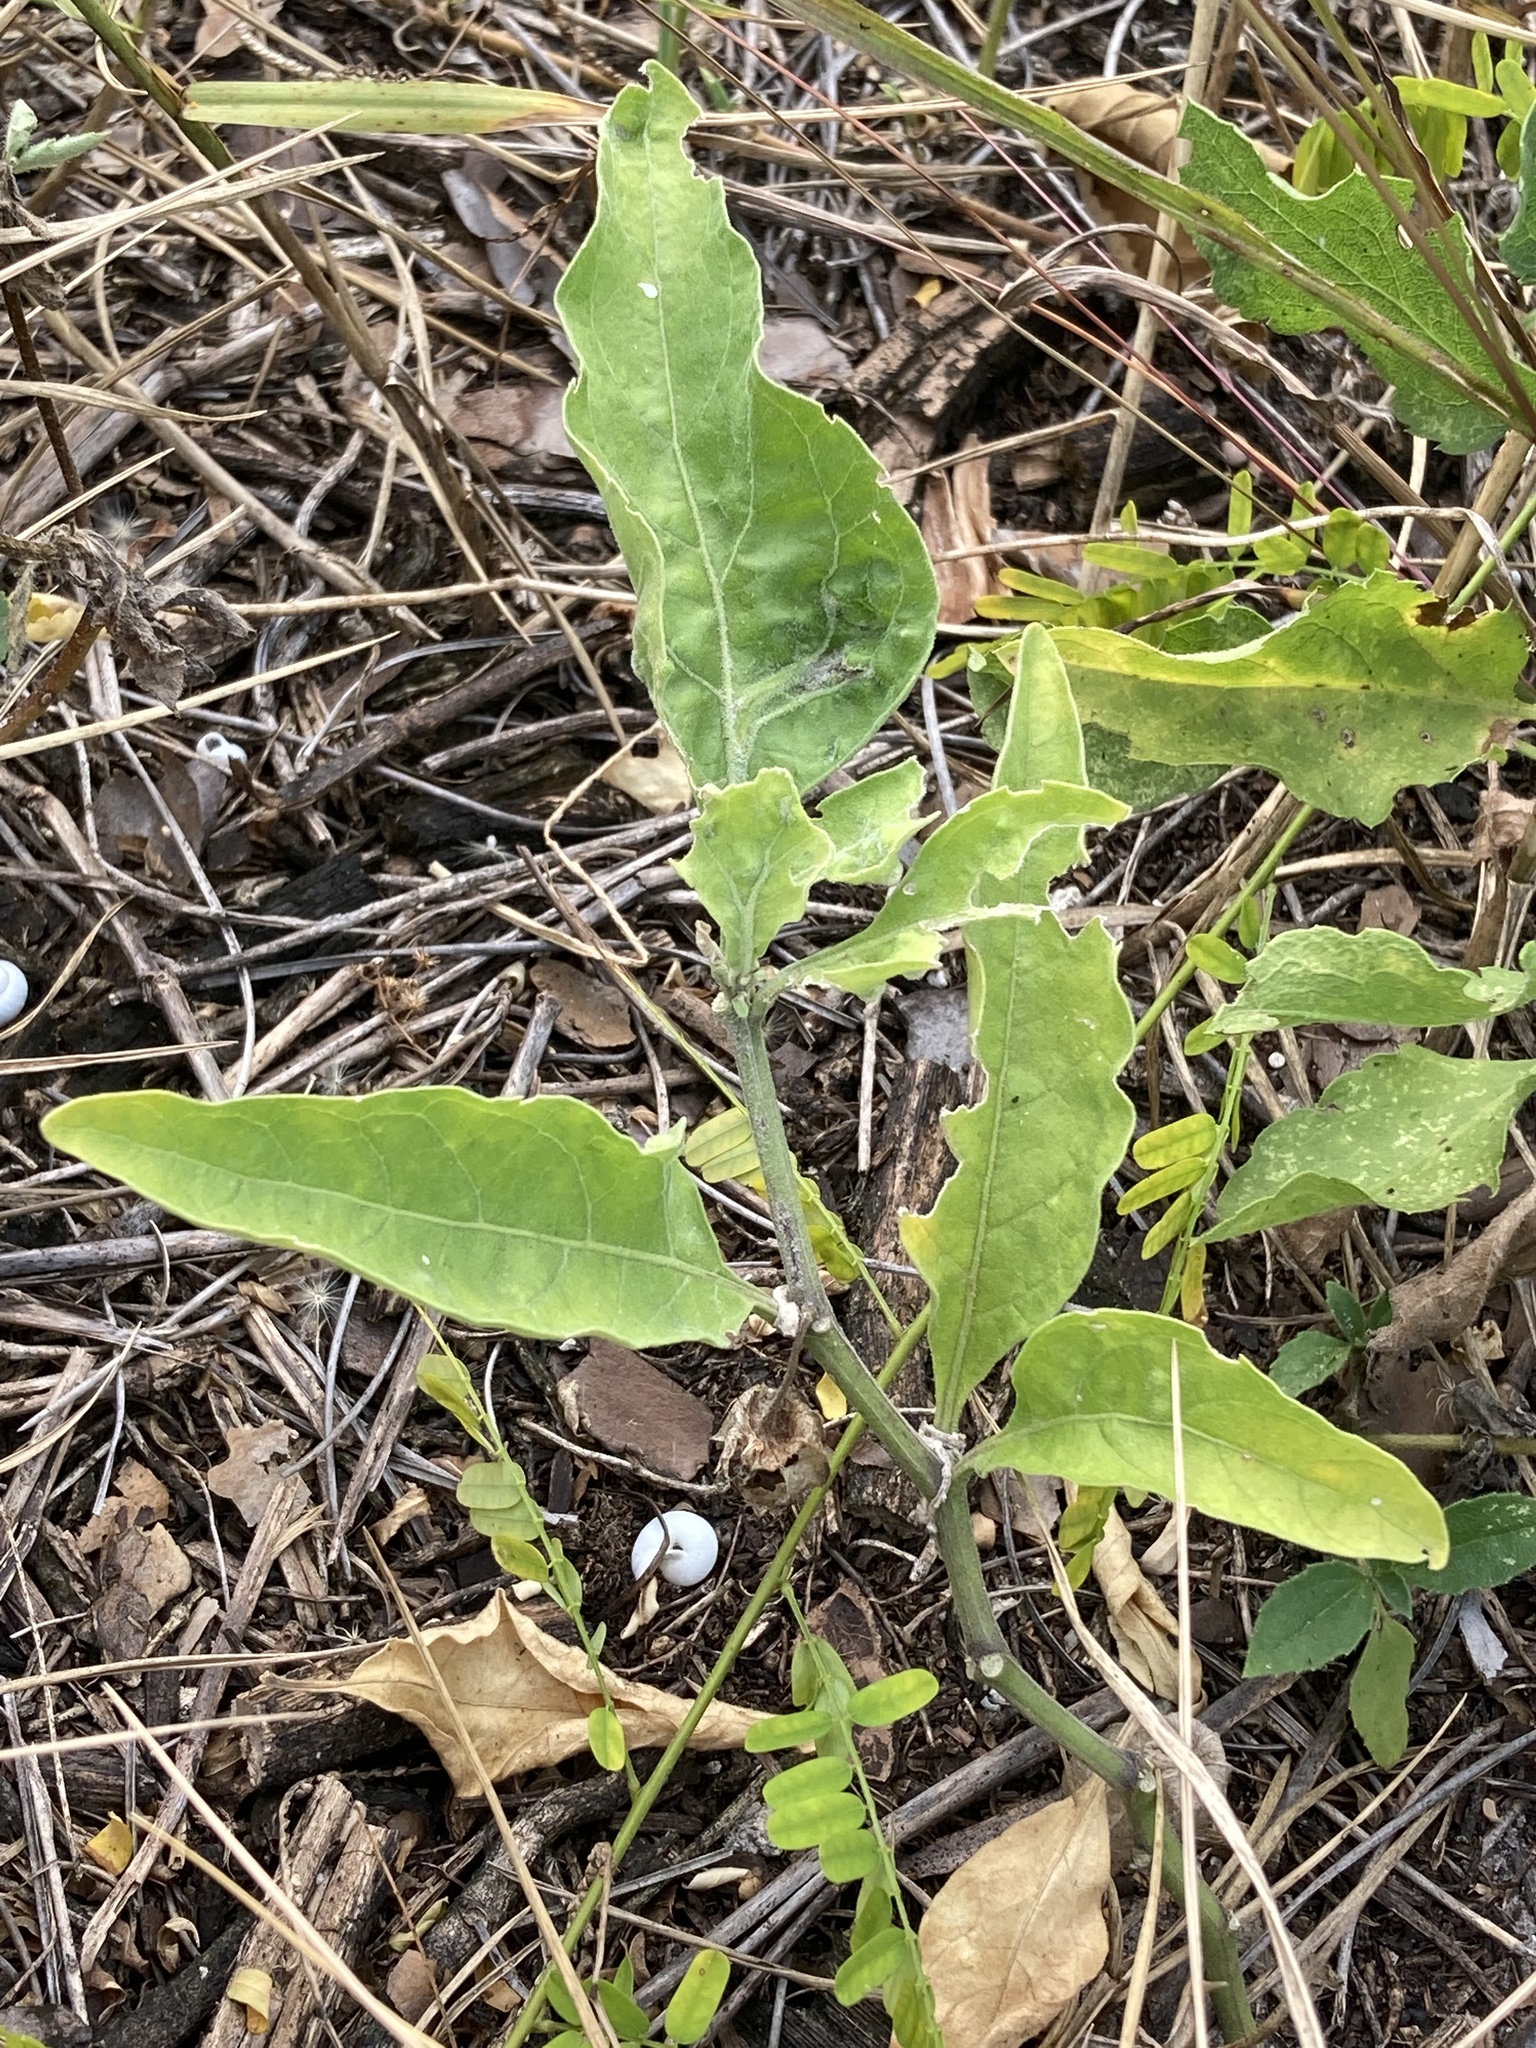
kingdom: Plantae
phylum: Tracheophyta
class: Magnoliopsida
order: Solanales
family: Solanaceae
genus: Physalis
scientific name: Physalis walteri
